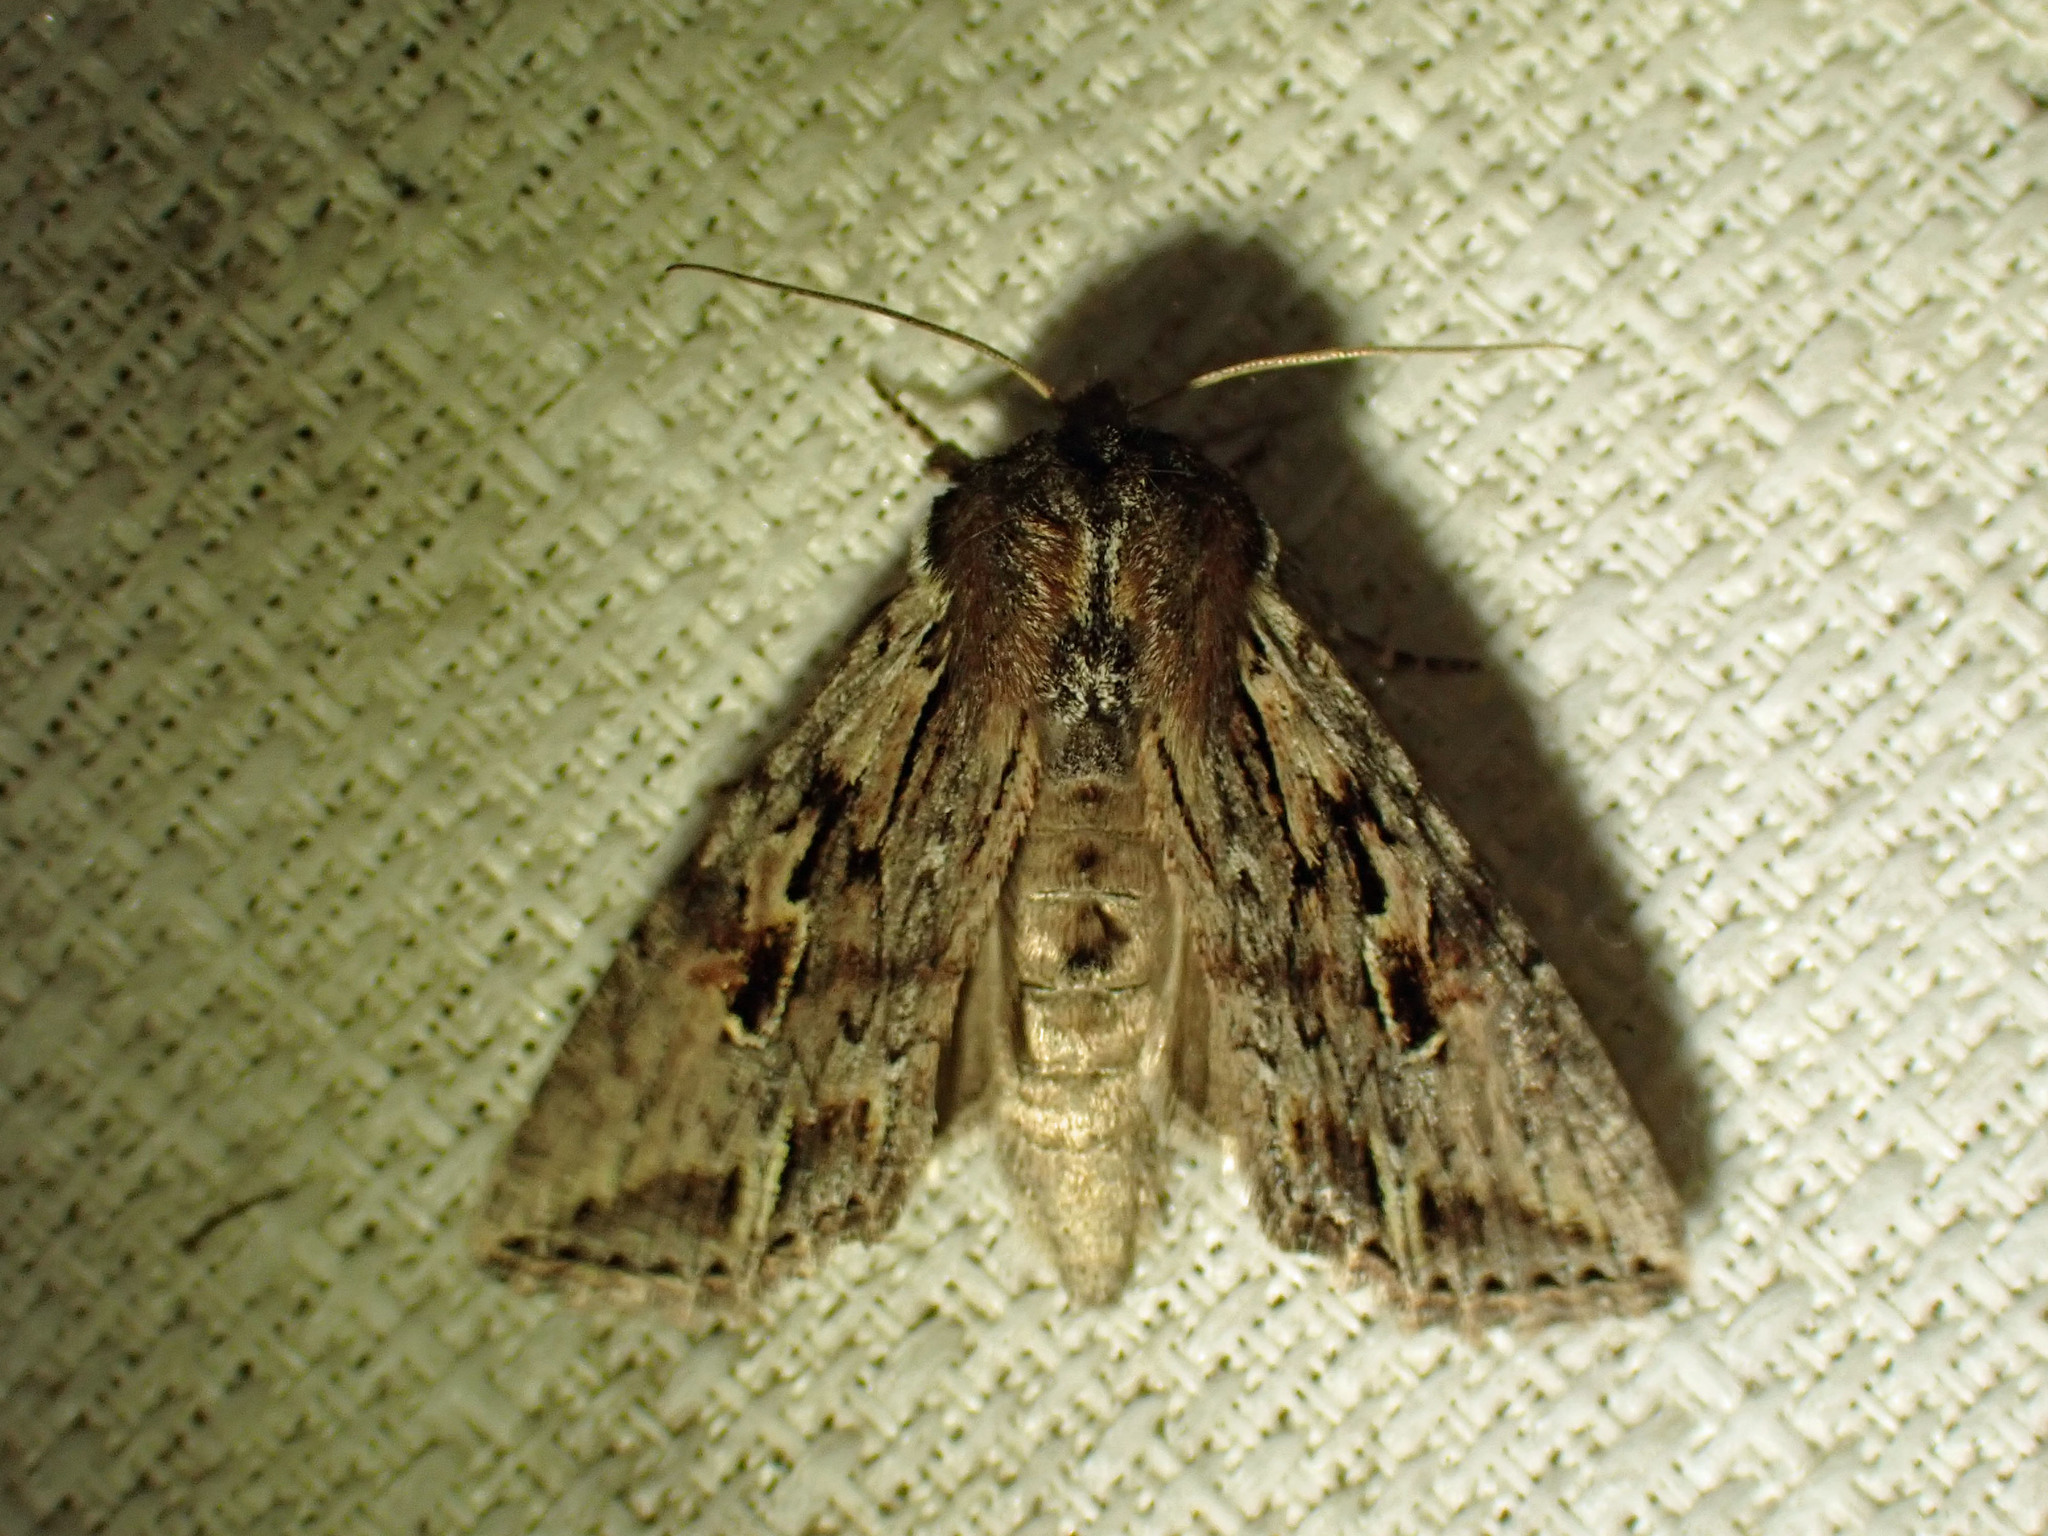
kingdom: Animalia
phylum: Arthropoda
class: Insecta
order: Lepidoptera
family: Noctuidae
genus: Achatia
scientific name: Achatia evicta
